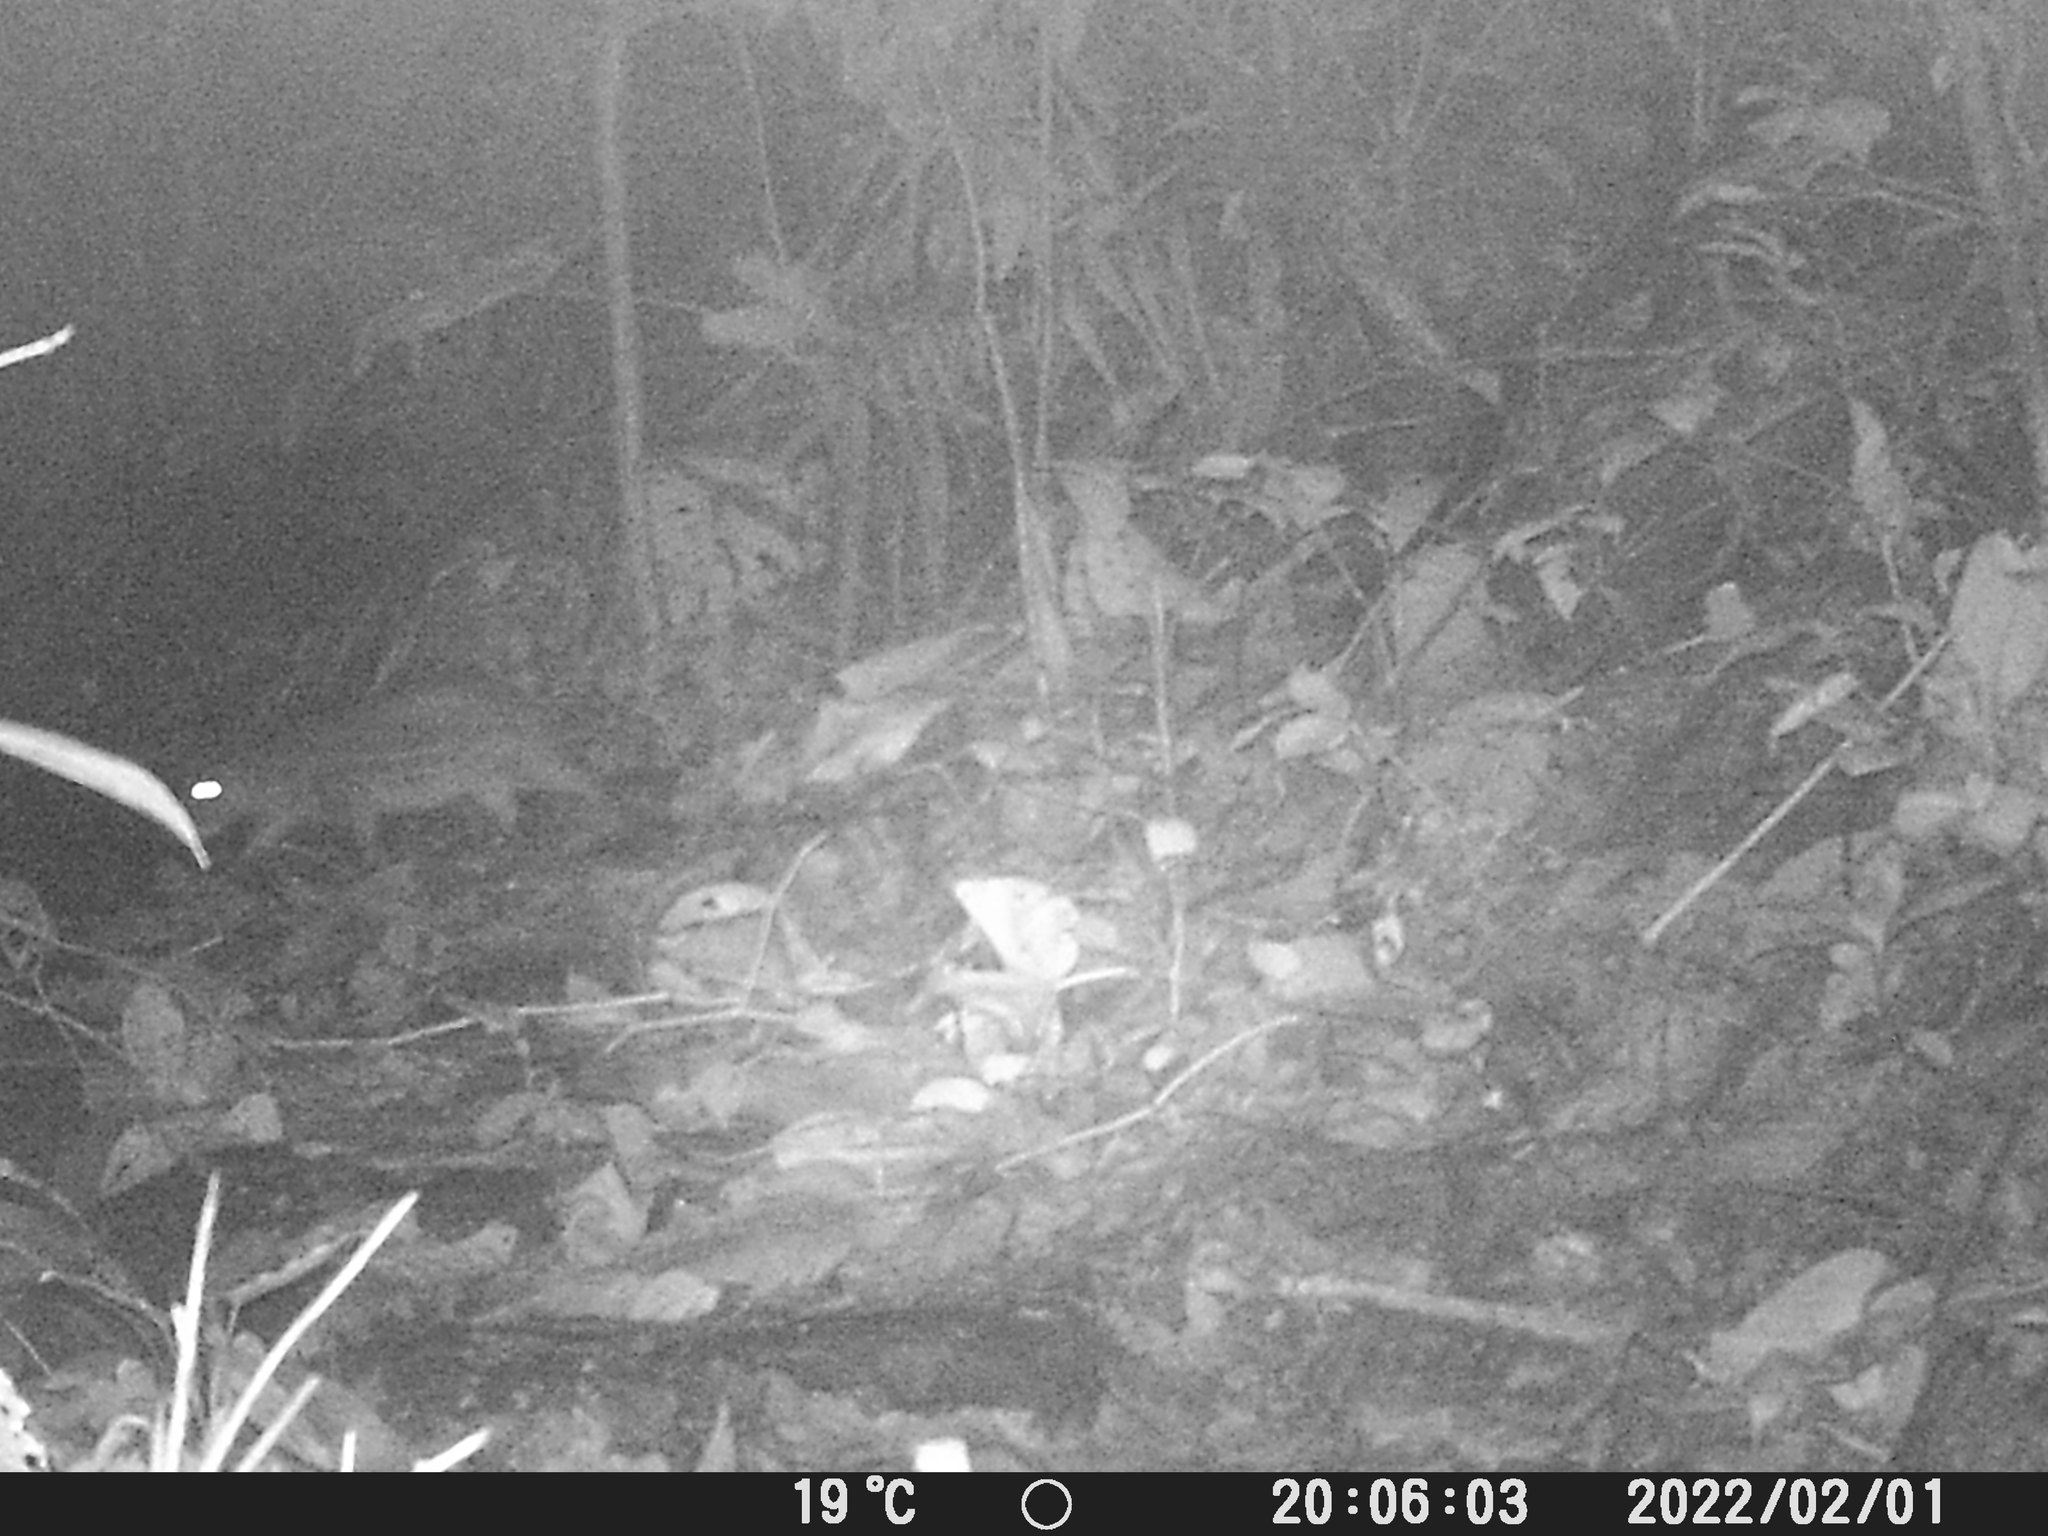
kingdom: Animalia
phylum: Chordata
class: Mammalia
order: Rodentia
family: Cuniculidae
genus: Cuniculus
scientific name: Cuniculus paca
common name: Lowland paca
